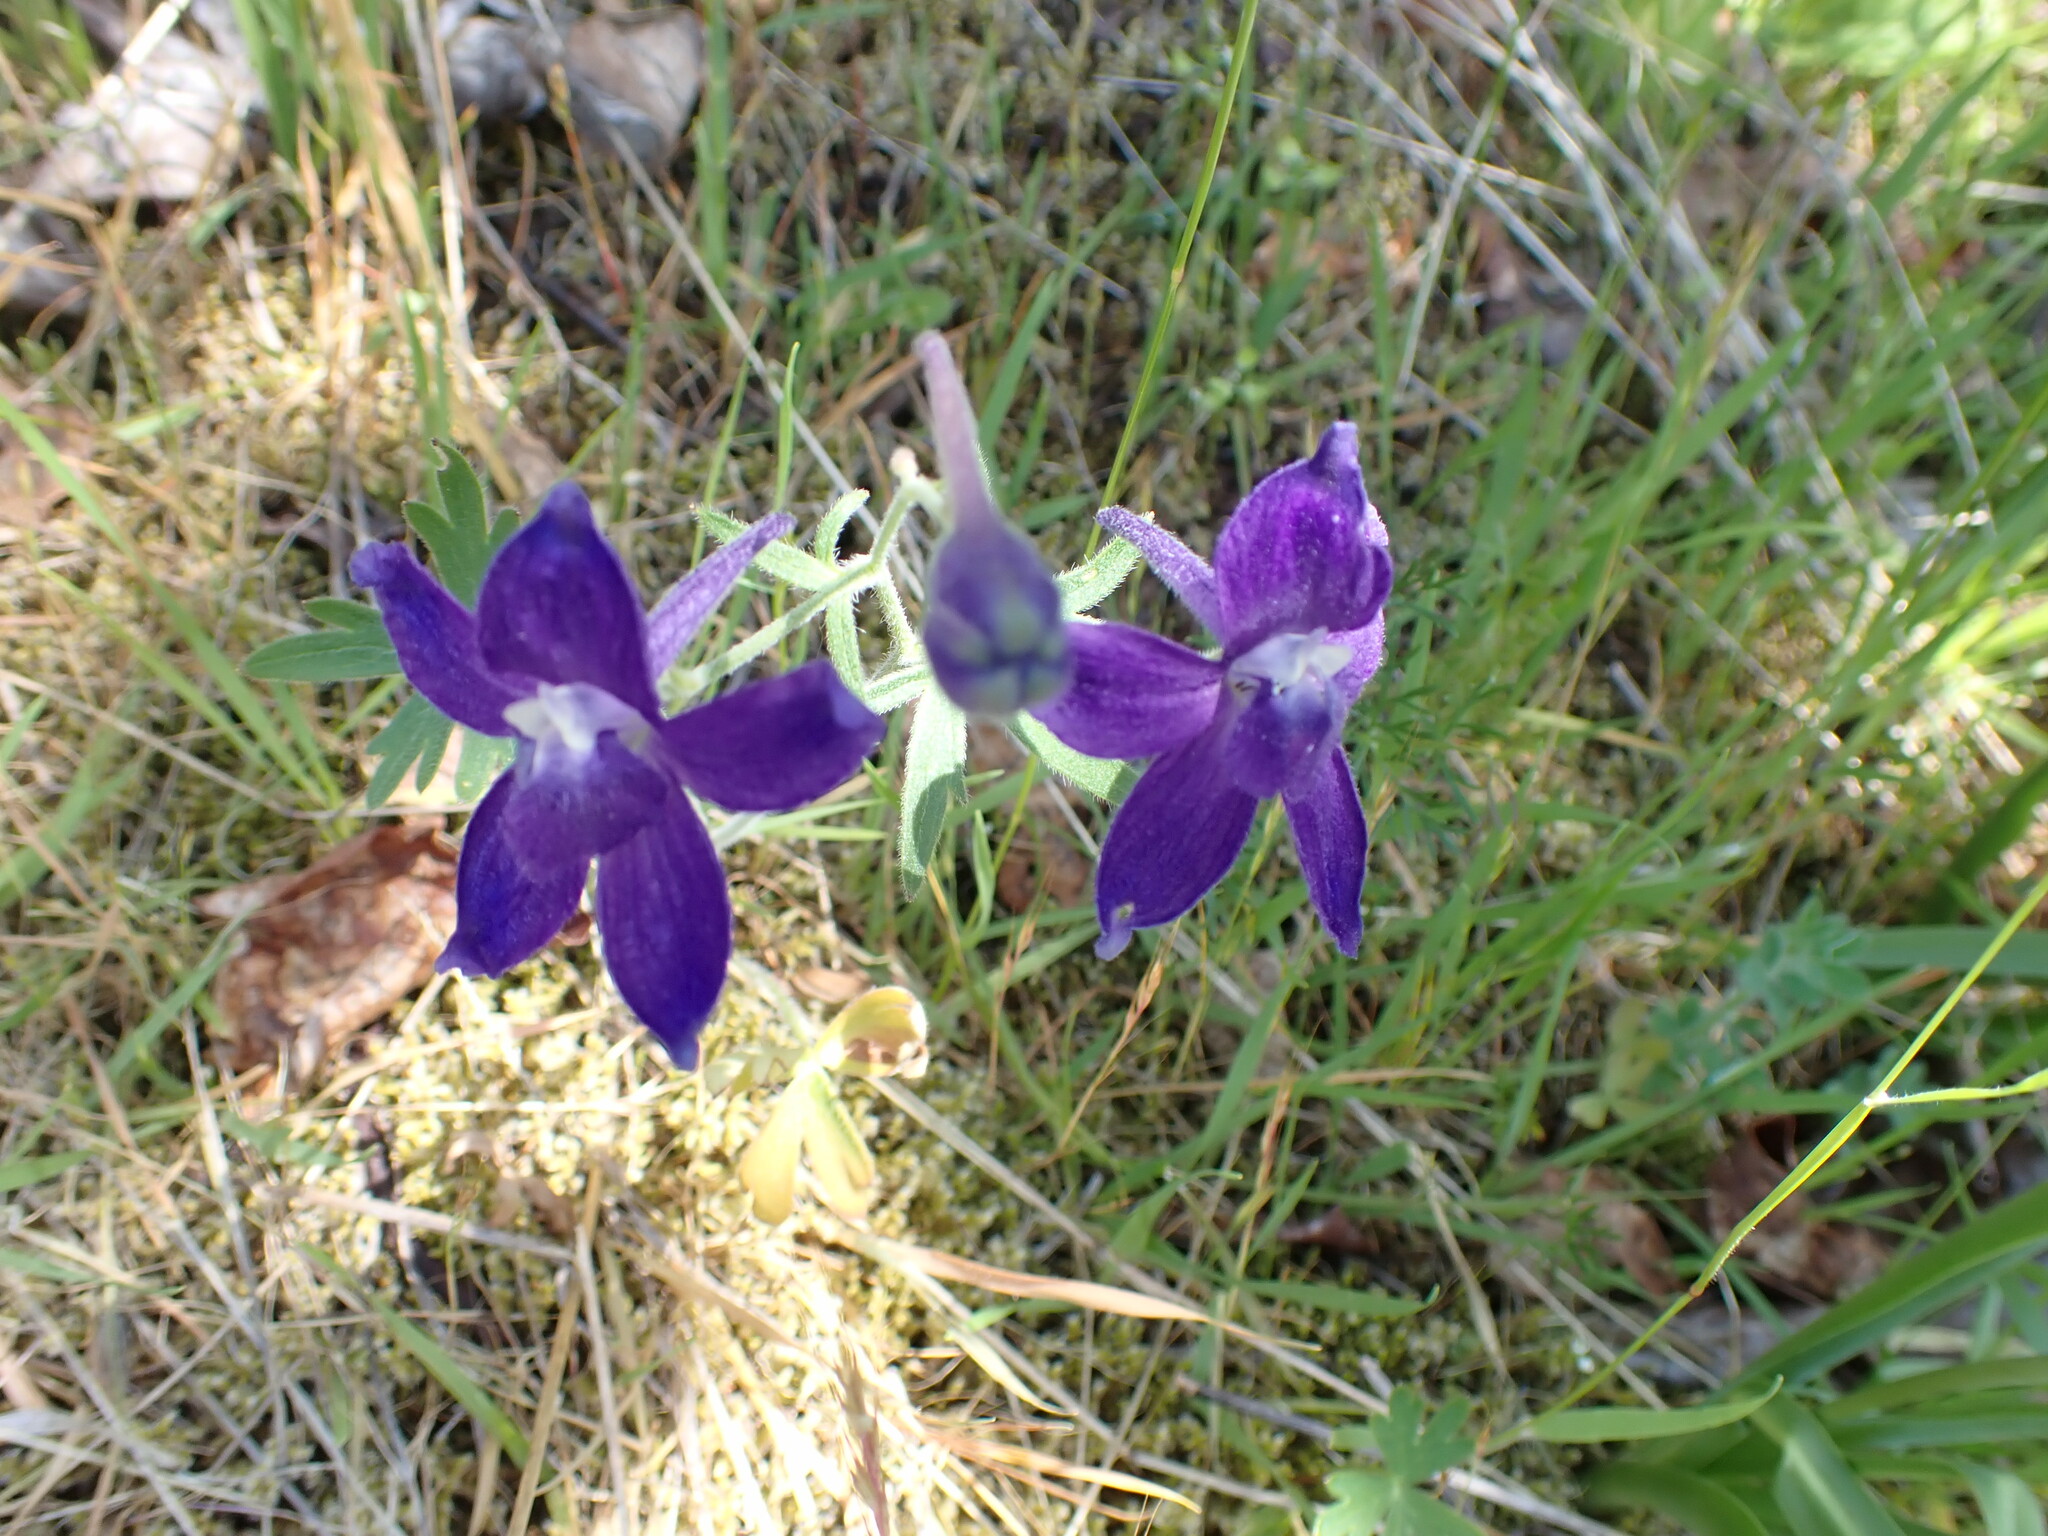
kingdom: Plantae
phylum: Tracheophyta
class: Magnoliopsida
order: Ranunculales
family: Ranunculaceae
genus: Delphinium
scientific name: Delphinium menziesii
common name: Menzies's larkspur
